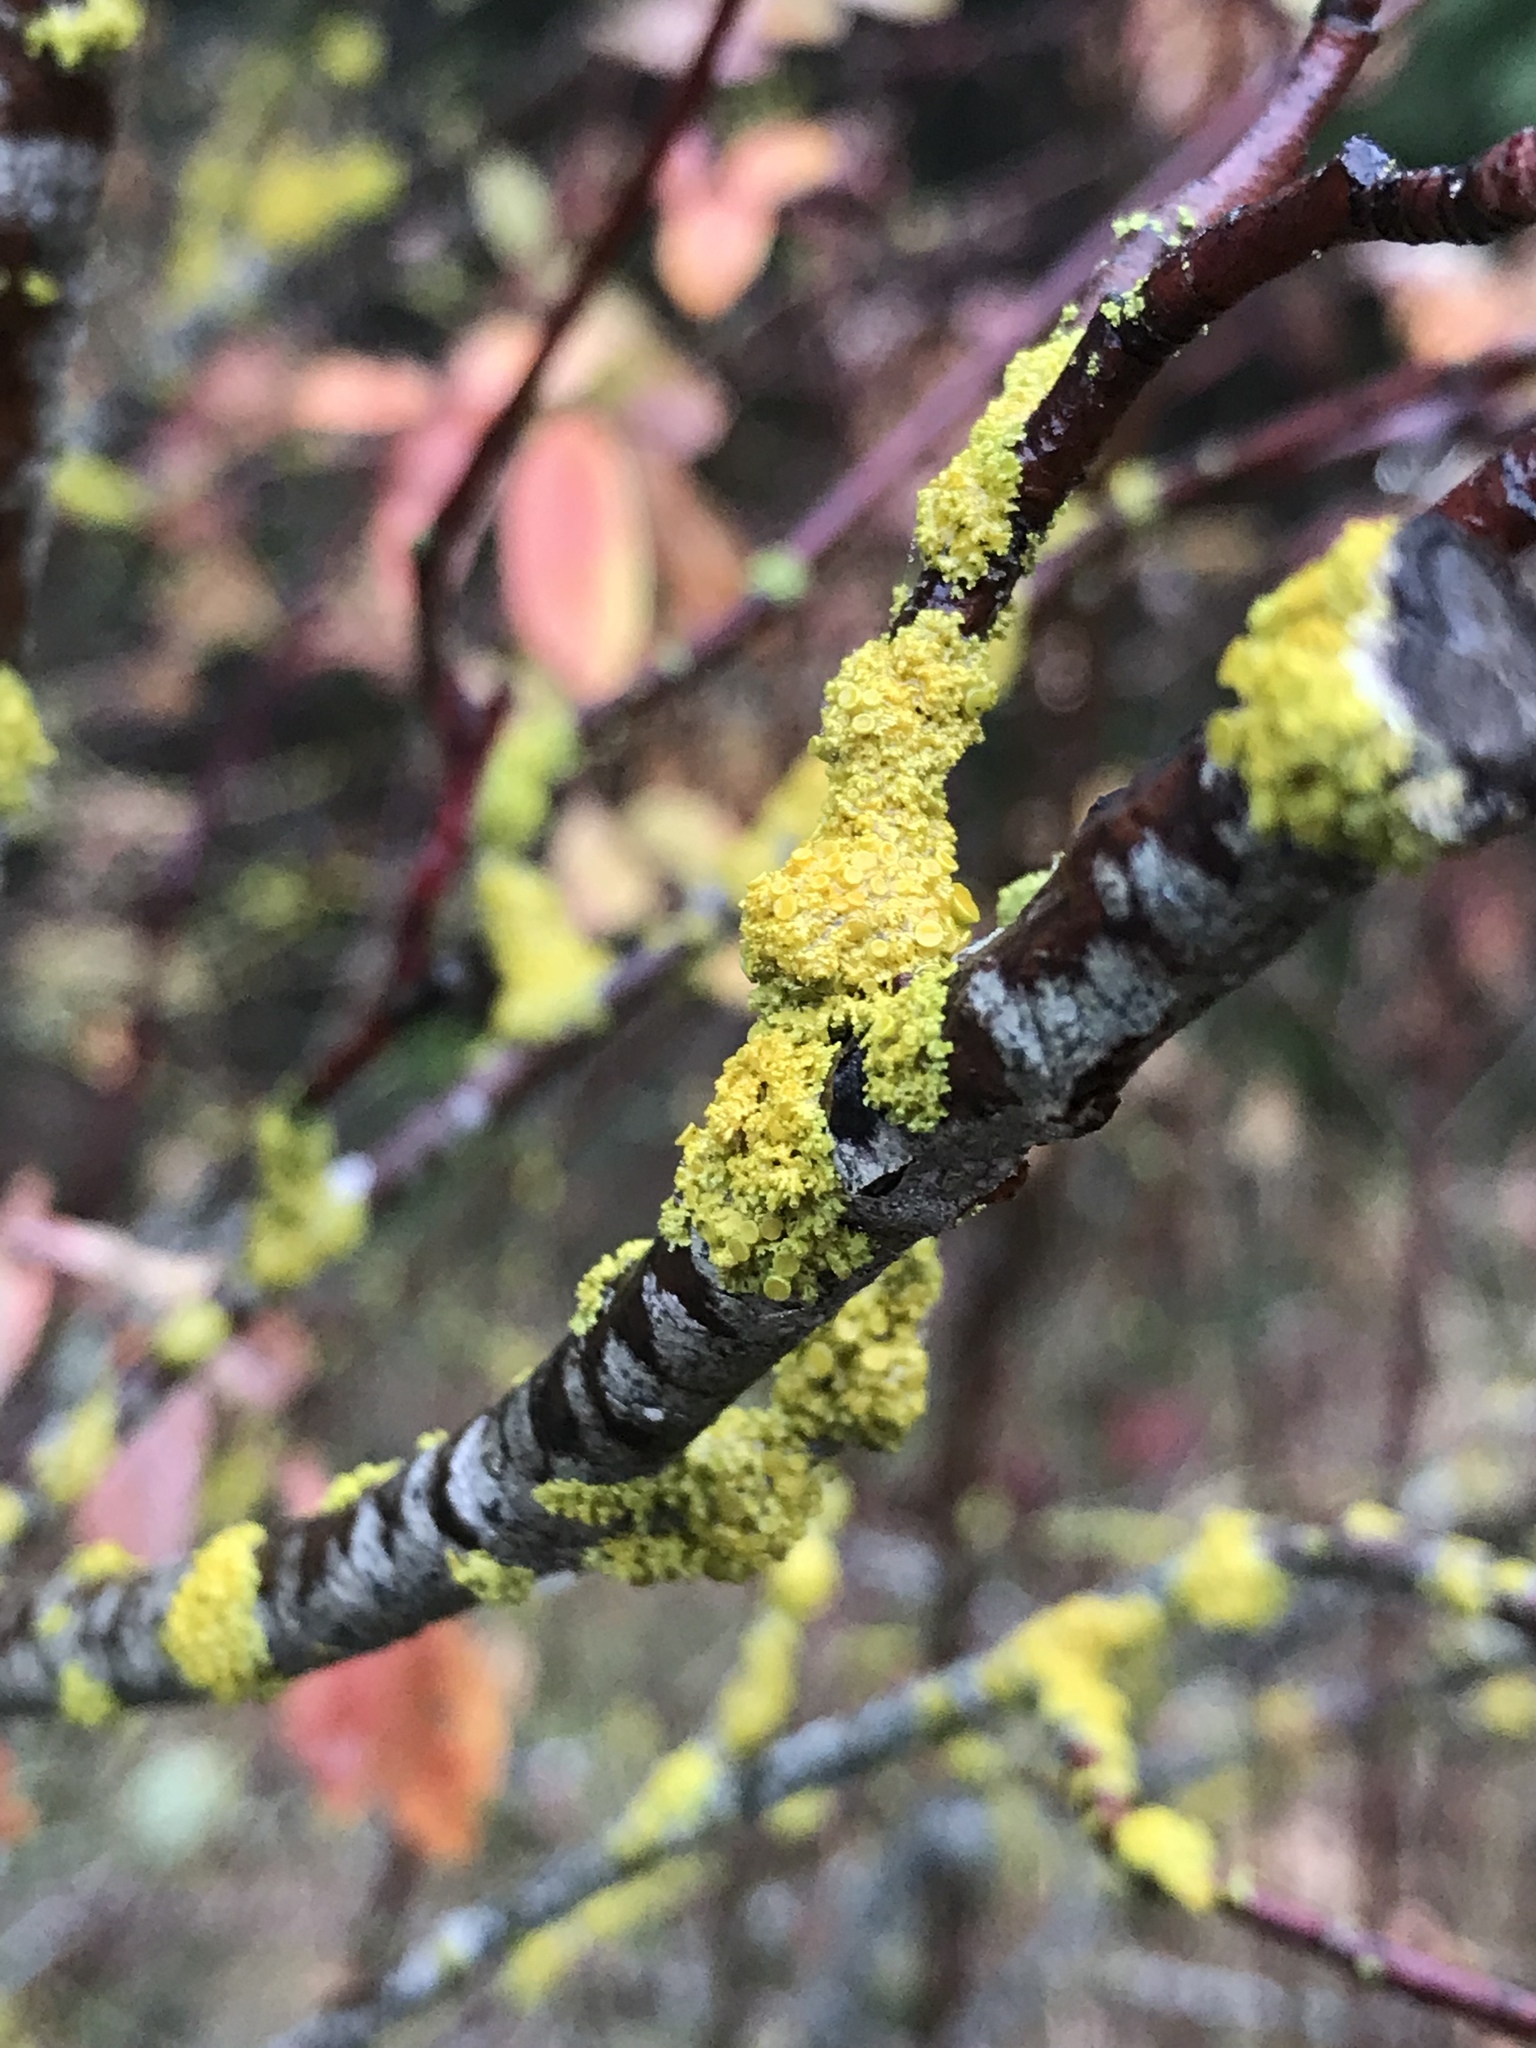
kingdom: Fungi
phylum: Ascomycota
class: Candelariomycetes
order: Candelariales
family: Candelariaceae
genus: Candelaria
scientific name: Candelaria concolor
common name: Candleflame lichen
